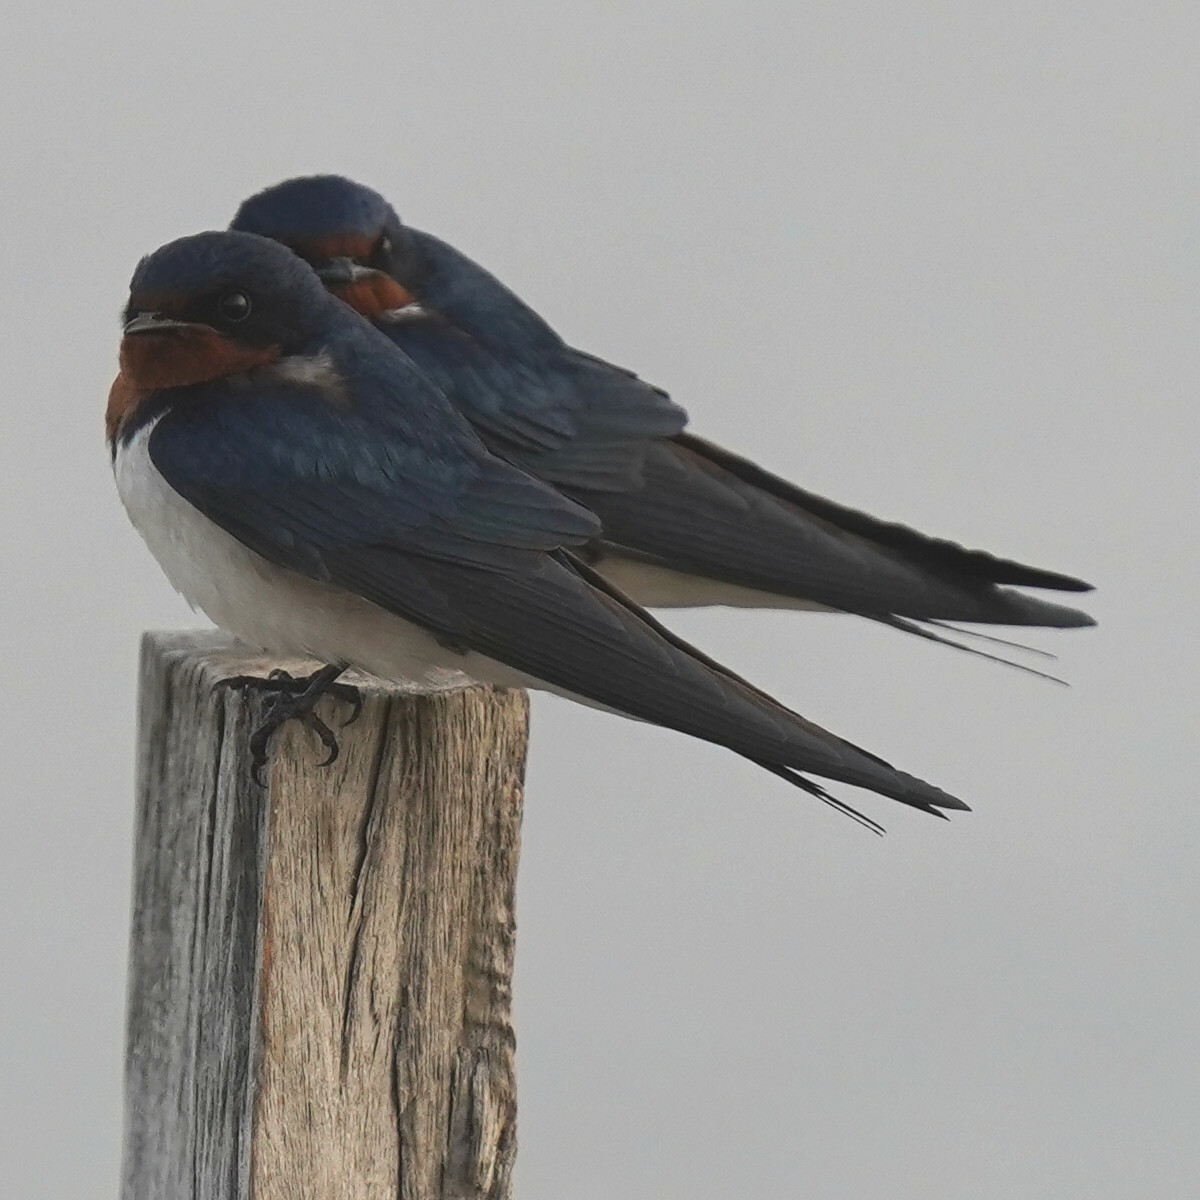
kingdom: Animalia
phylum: Chordata
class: Aves
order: Passeriformes
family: Hirundinidae
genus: Hirundo
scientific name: Hirundo lucida
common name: Red-chested swallow
